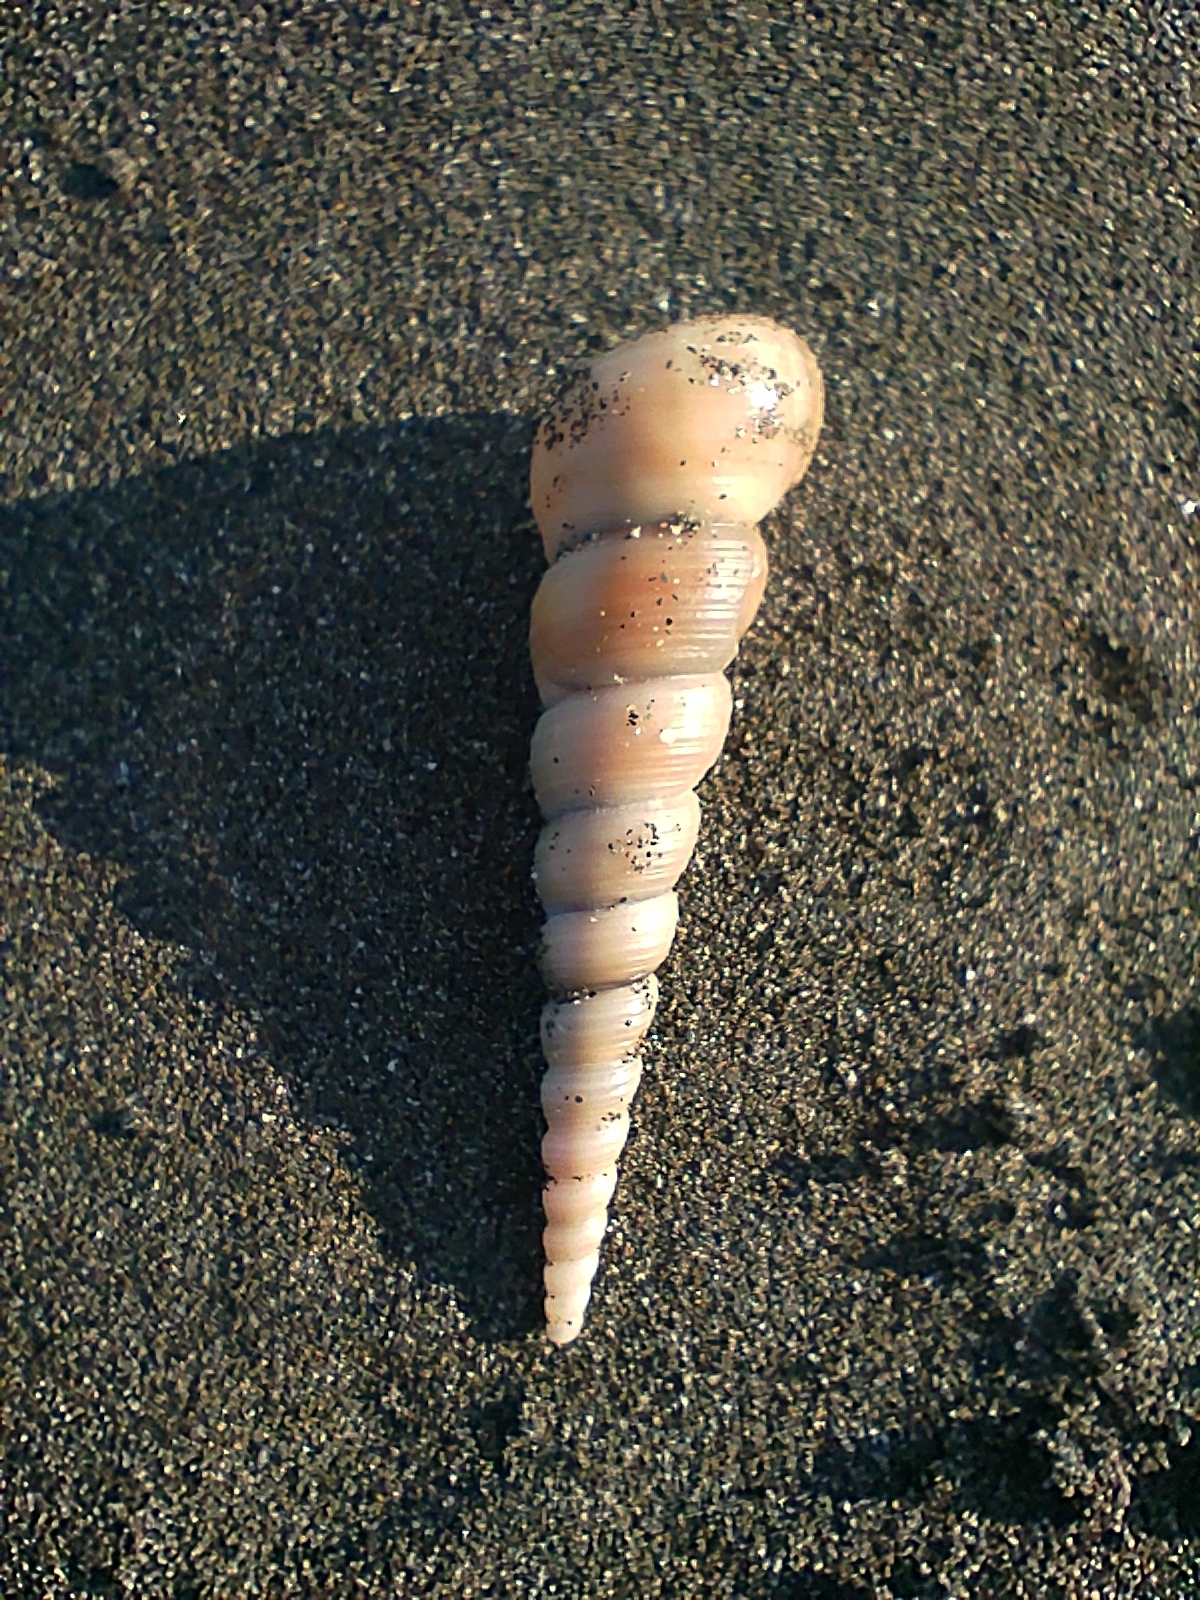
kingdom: Animalia
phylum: Mollusca
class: Gastropoda
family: Turritellidae
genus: Turritella
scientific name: Turritella terebra
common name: Auger screw shell
